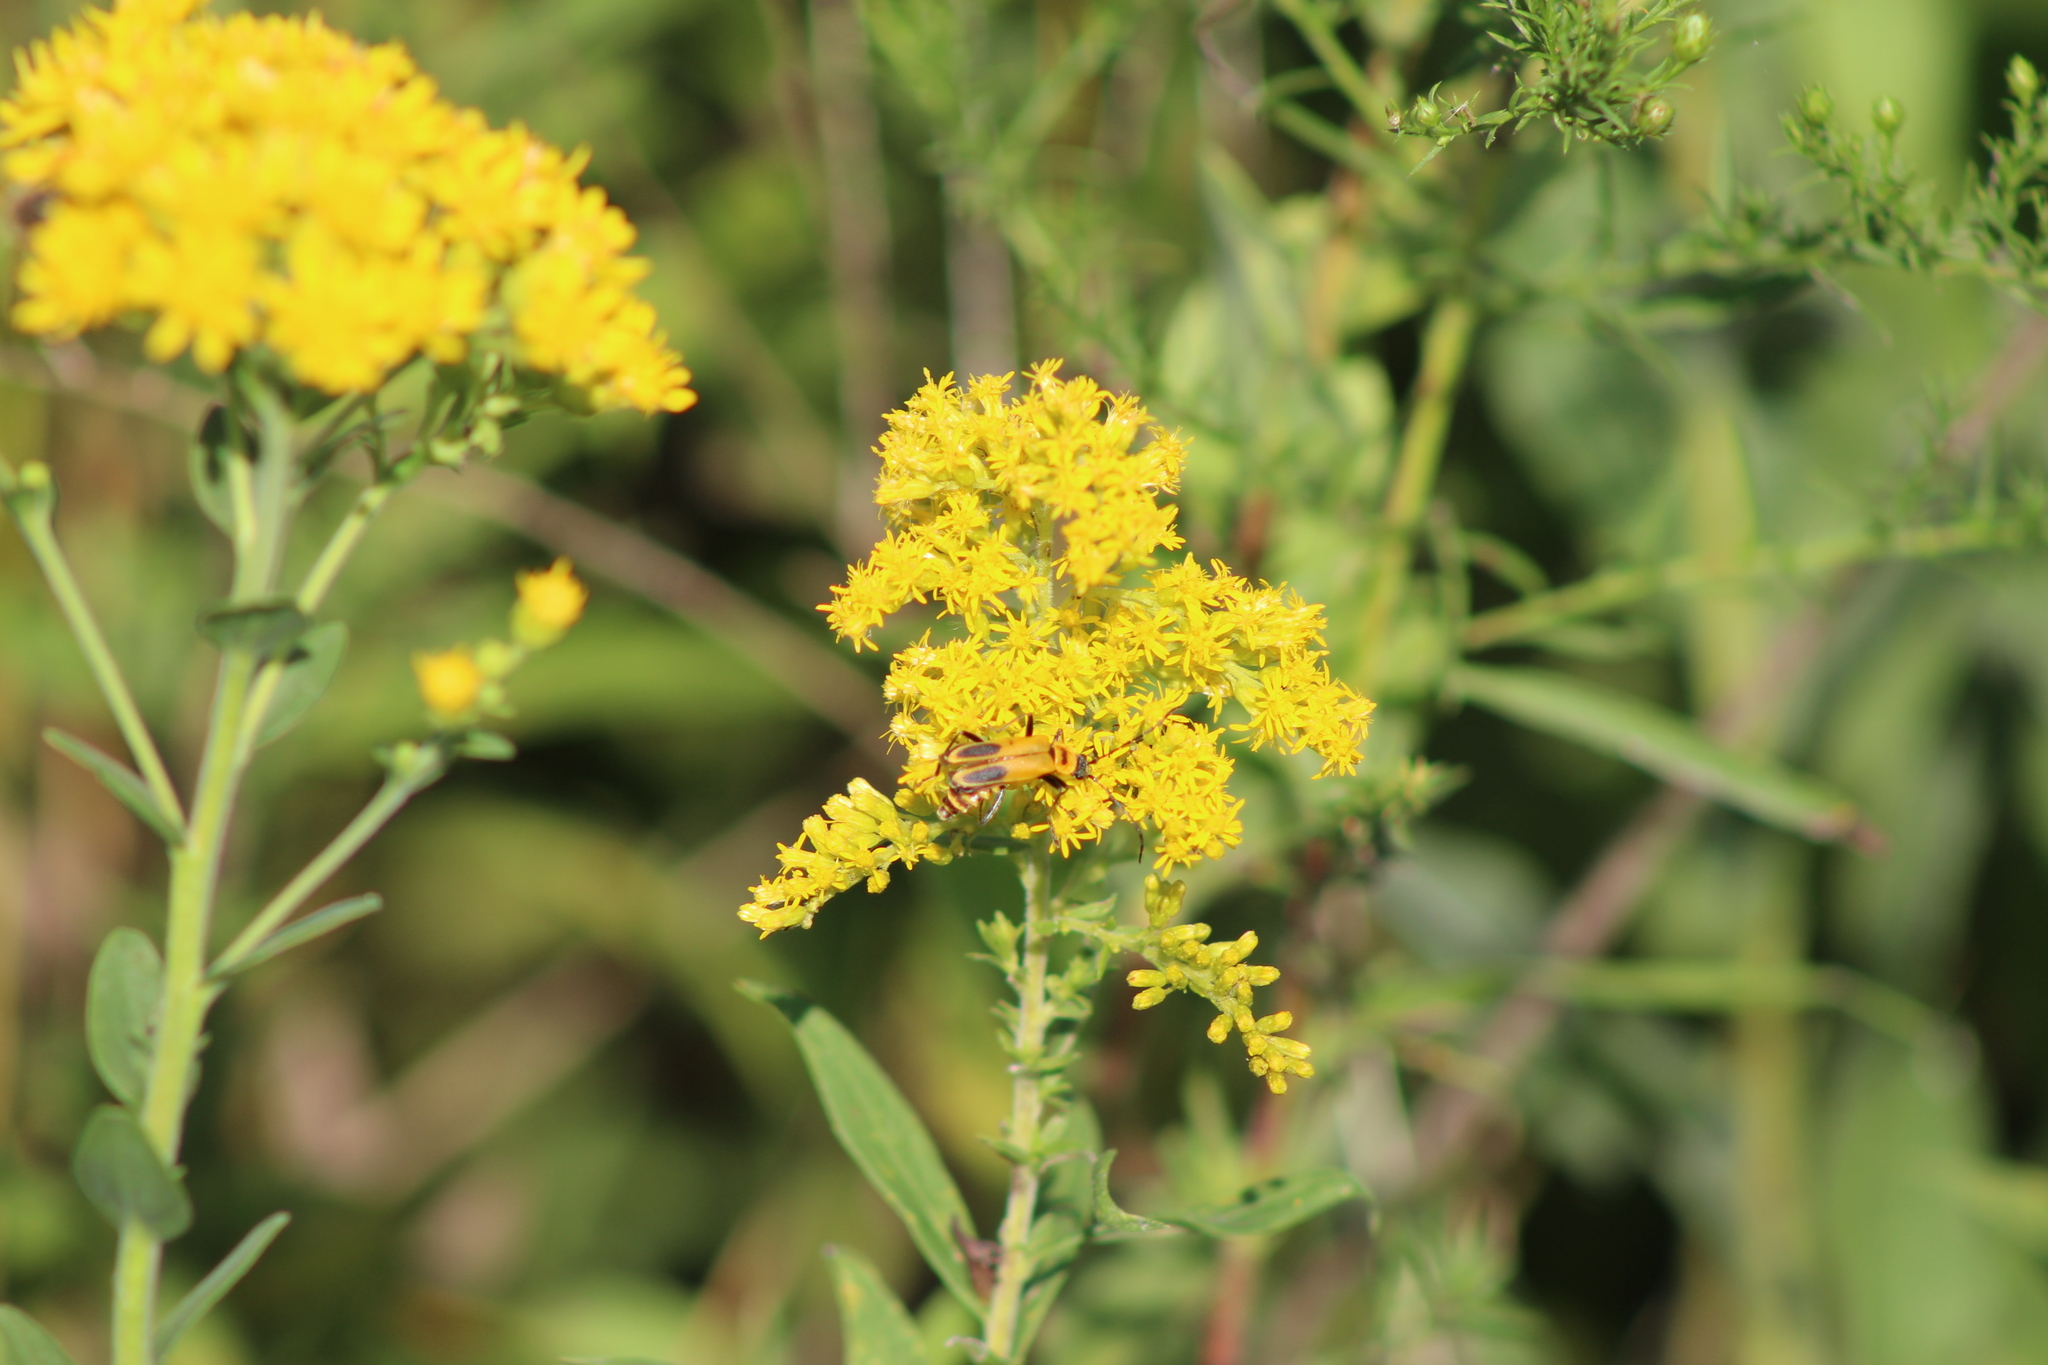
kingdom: Animalia
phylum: Arthropoda
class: Insecta
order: Coleoptera
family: Cantharidae
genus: Chauliognathus
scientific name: Chauliognathus pensylvanicus
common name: Goldenrod soldier beetle
